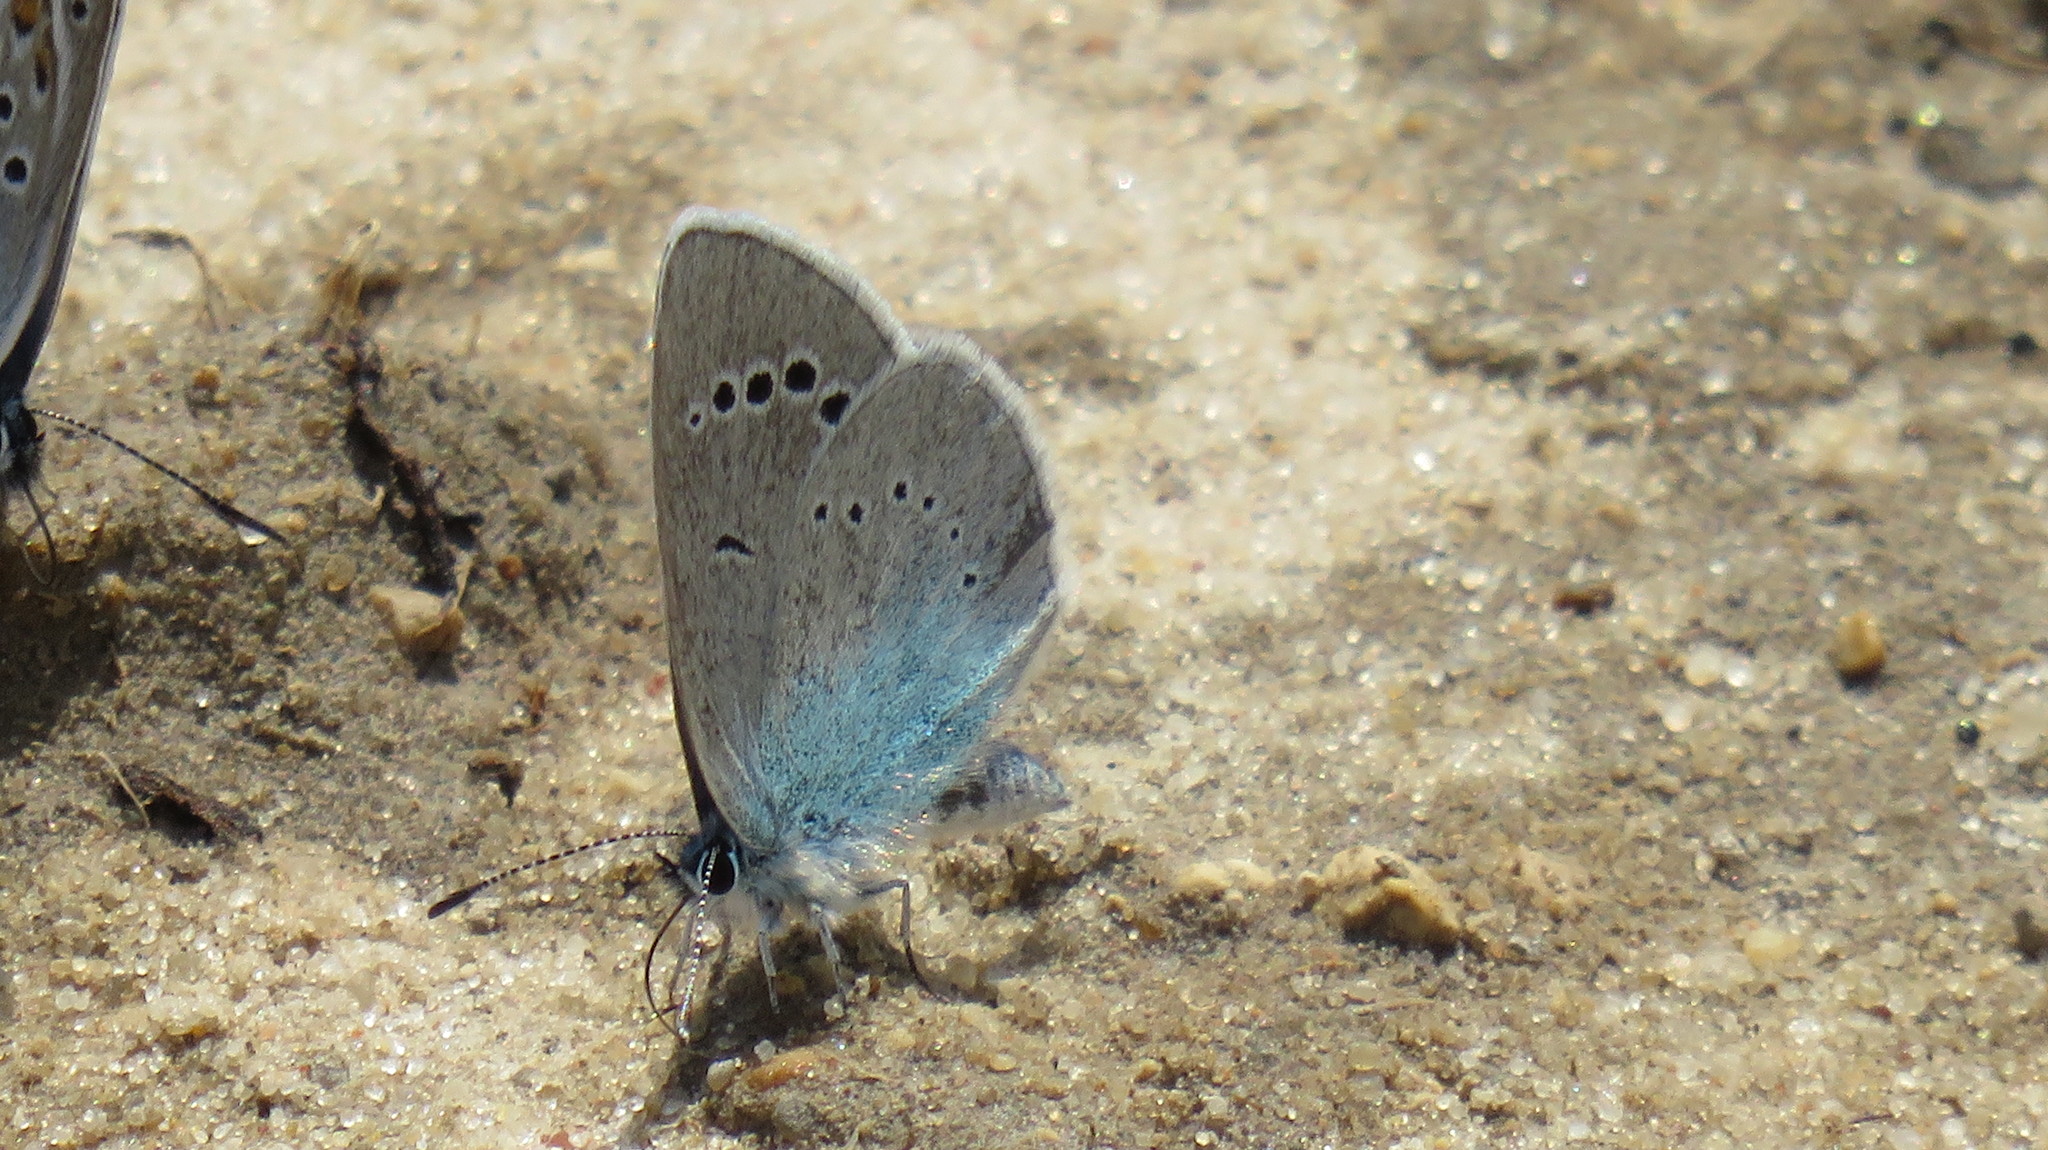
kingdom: Animalia
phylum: Arthropoda
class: Insecta
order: Lepidoptera
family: Lycaenidae
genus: Glaucopsyche
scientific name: Glaucopsyche alexis
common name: Green-underside blue
